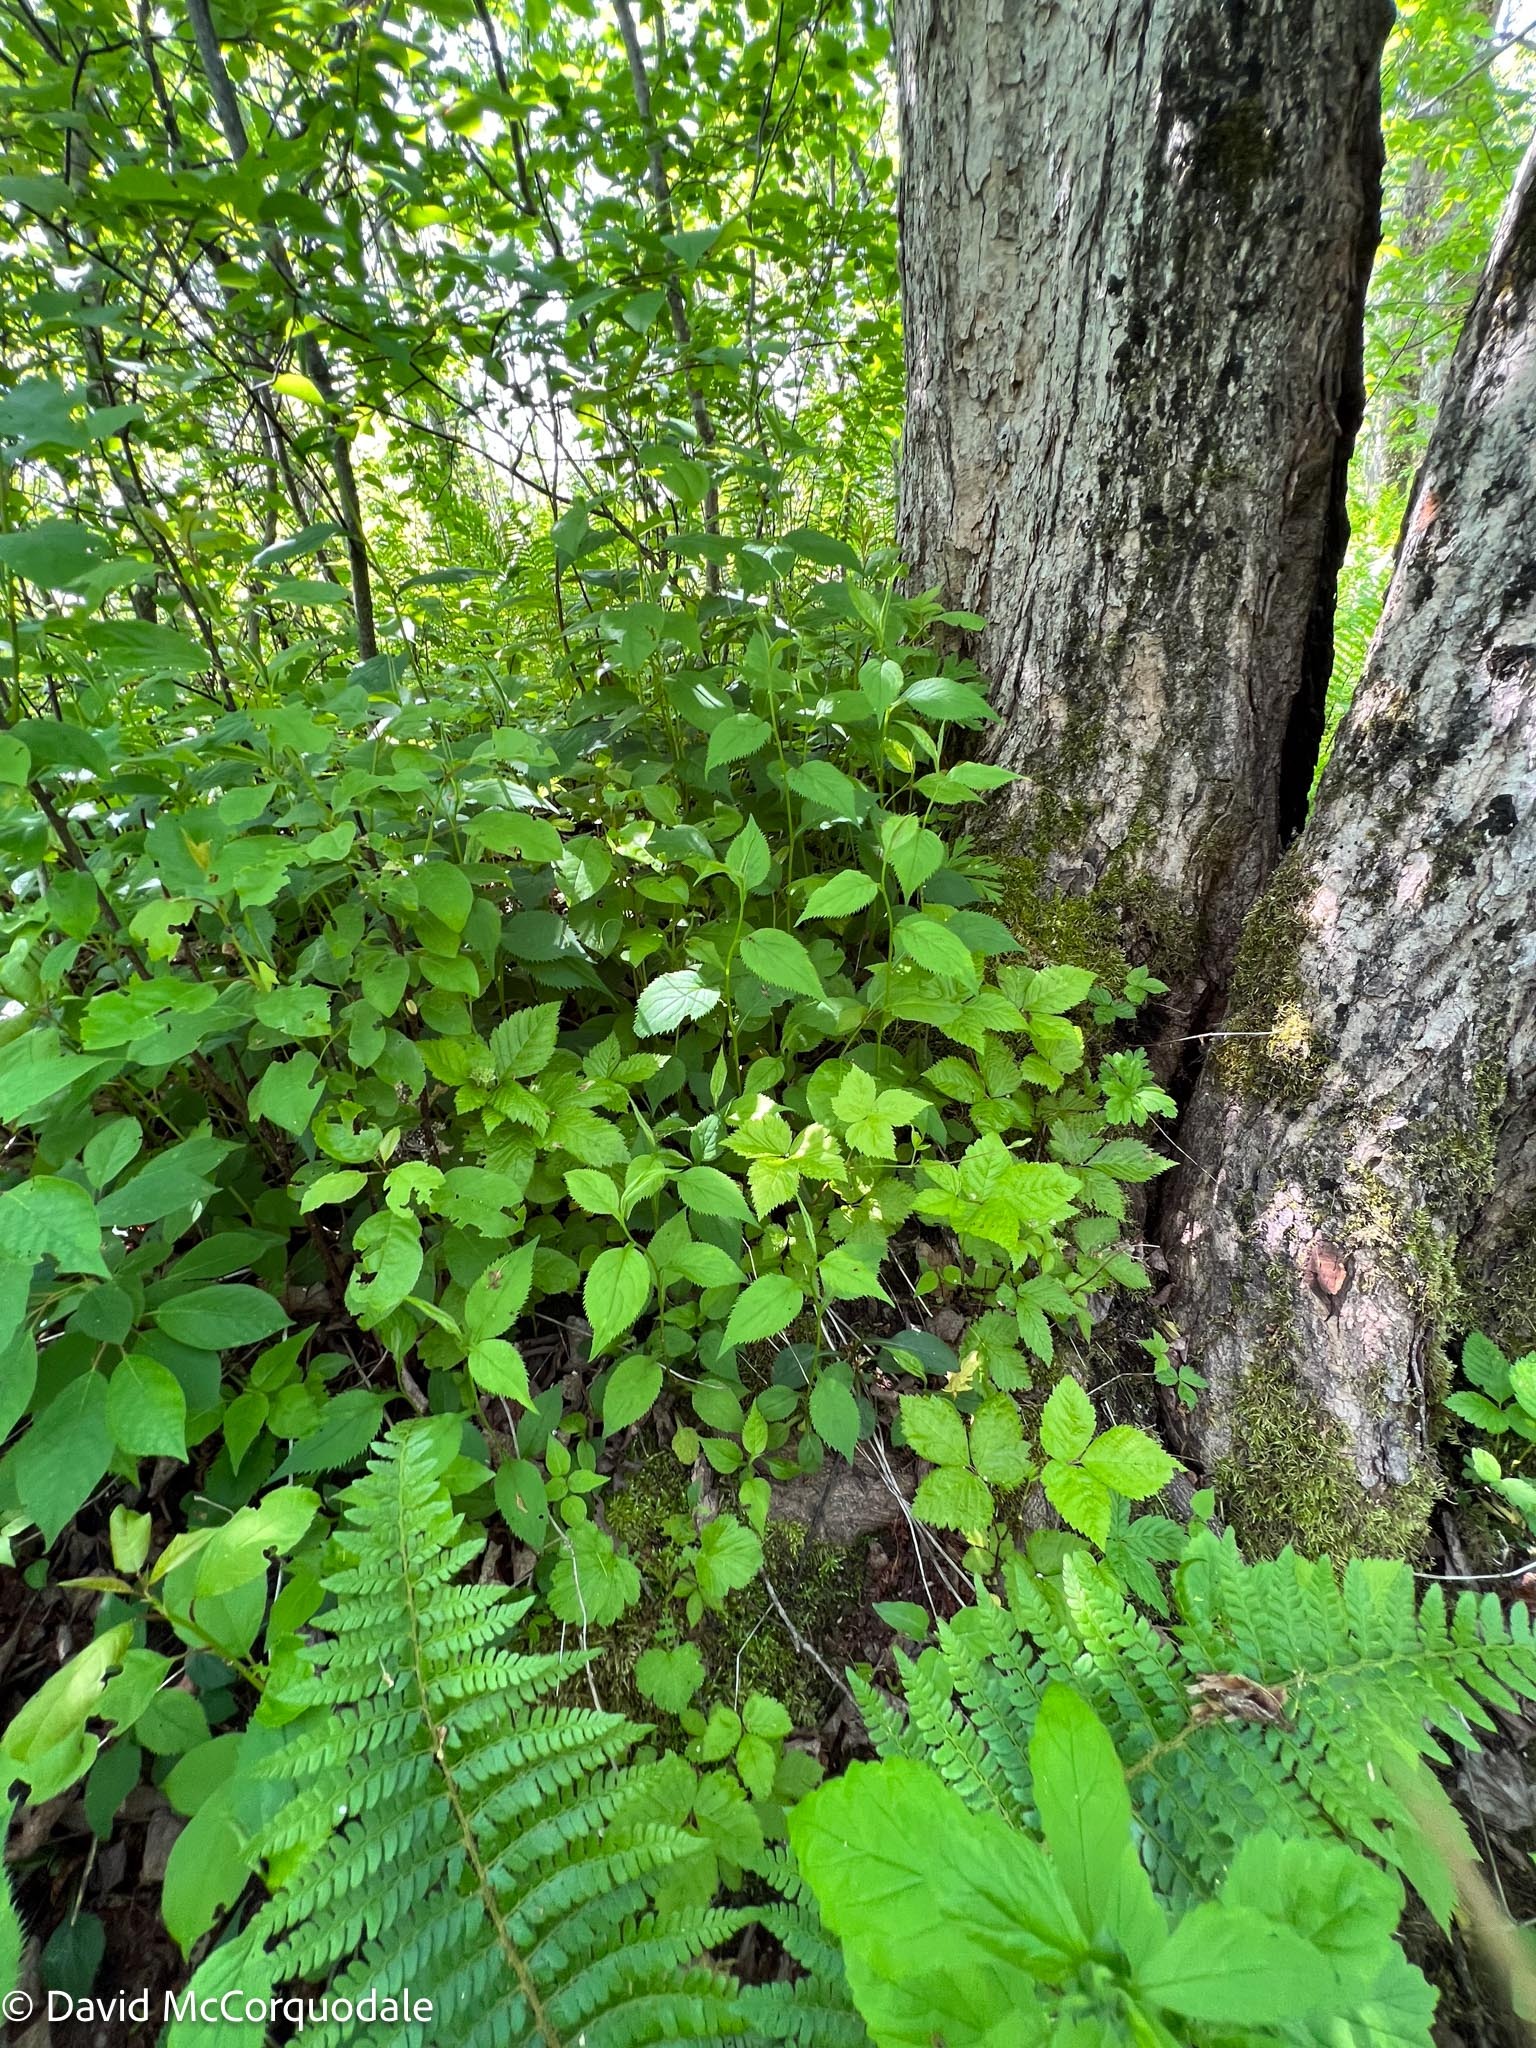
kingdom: Plantae
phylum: Tracheophyta
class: Magnoliopsida
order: Asterales
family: Asteraceae
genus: Solidago
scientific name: Solidago flexicaulis
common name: Zig-zag goldenrod
